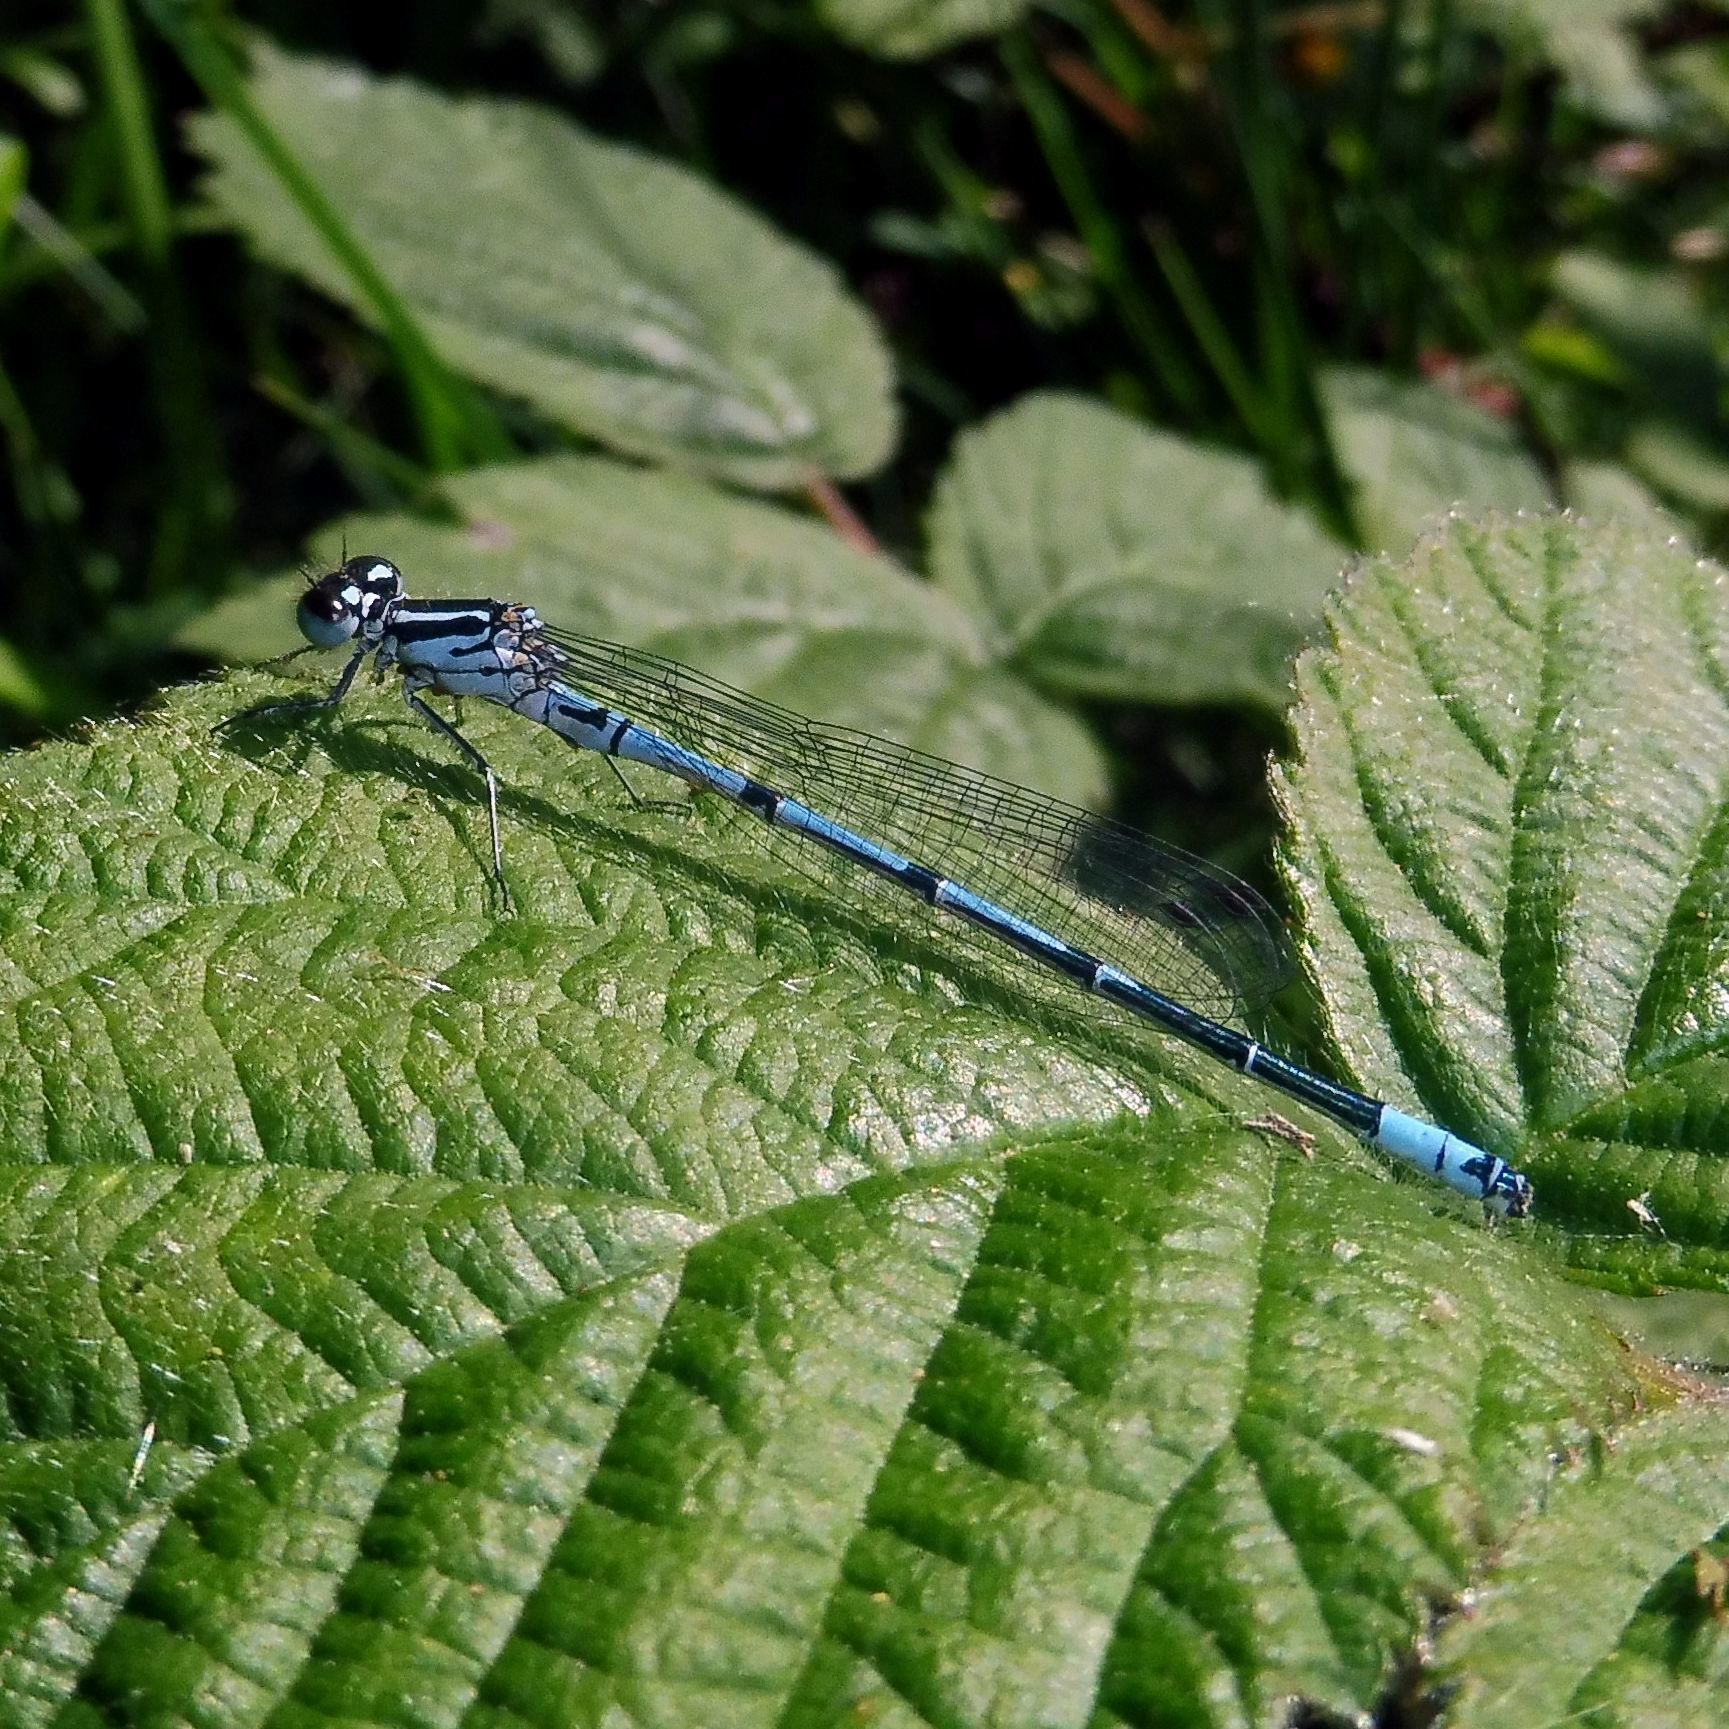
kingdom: Animalia
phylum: Arthropoda
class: Insecta
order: Odonata
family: Coenagrionidae
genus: Coenagrion
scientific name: Coenagrion puella
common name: Azure damselfly
